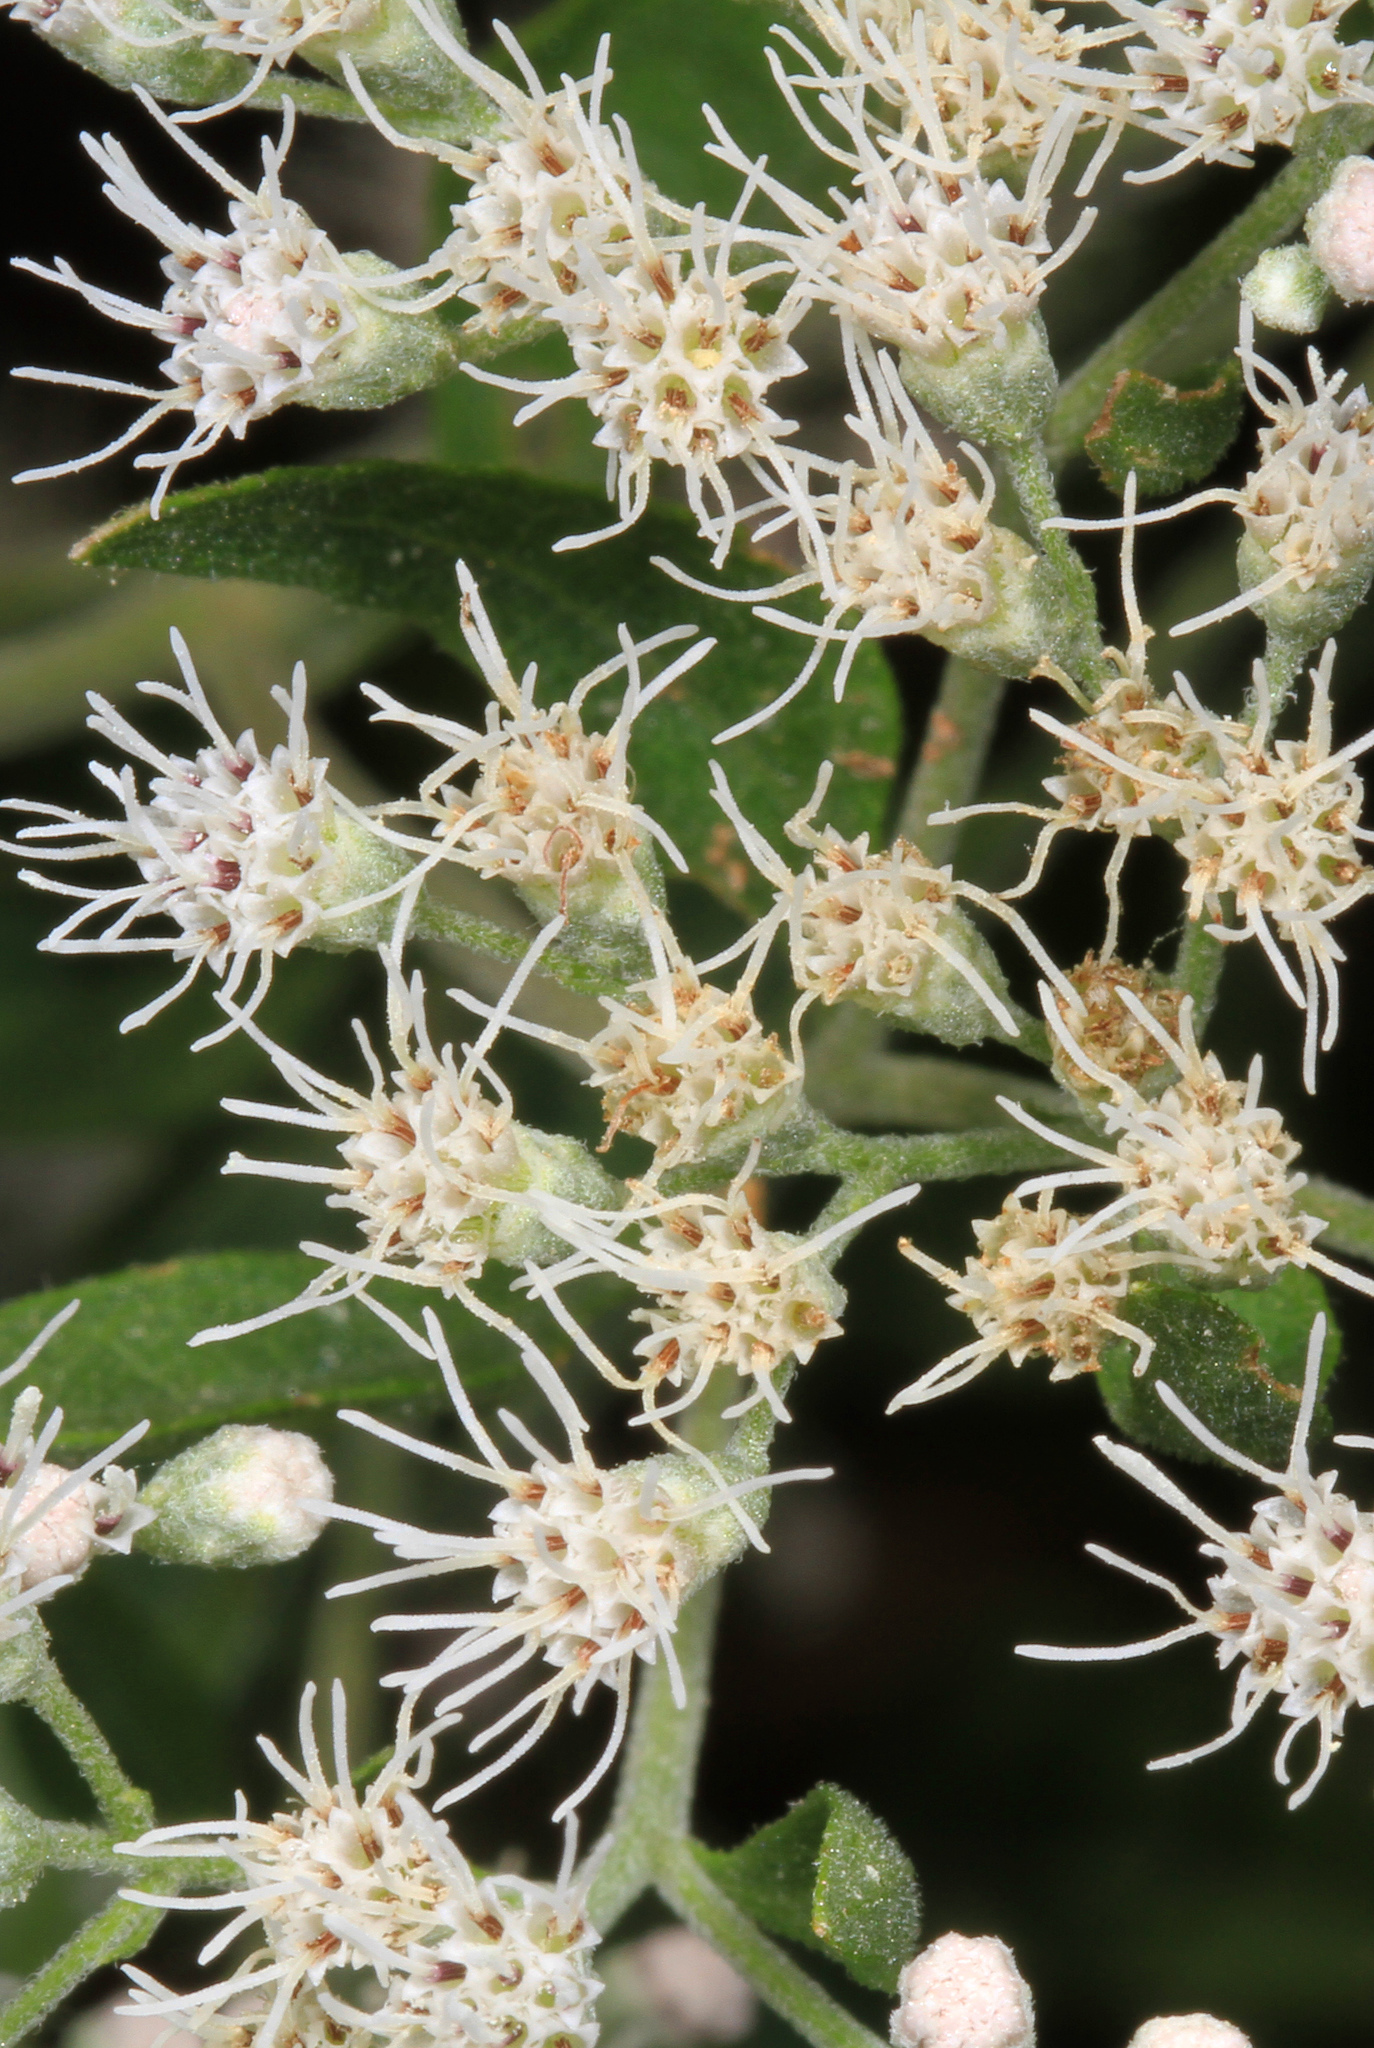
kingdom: Plantae
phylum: Tracheophyta
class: Magnoliopsida
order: Asterales
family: Asteraceae
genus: Eupatorium
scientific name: Eupatorium serotinum
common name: Late boneset
